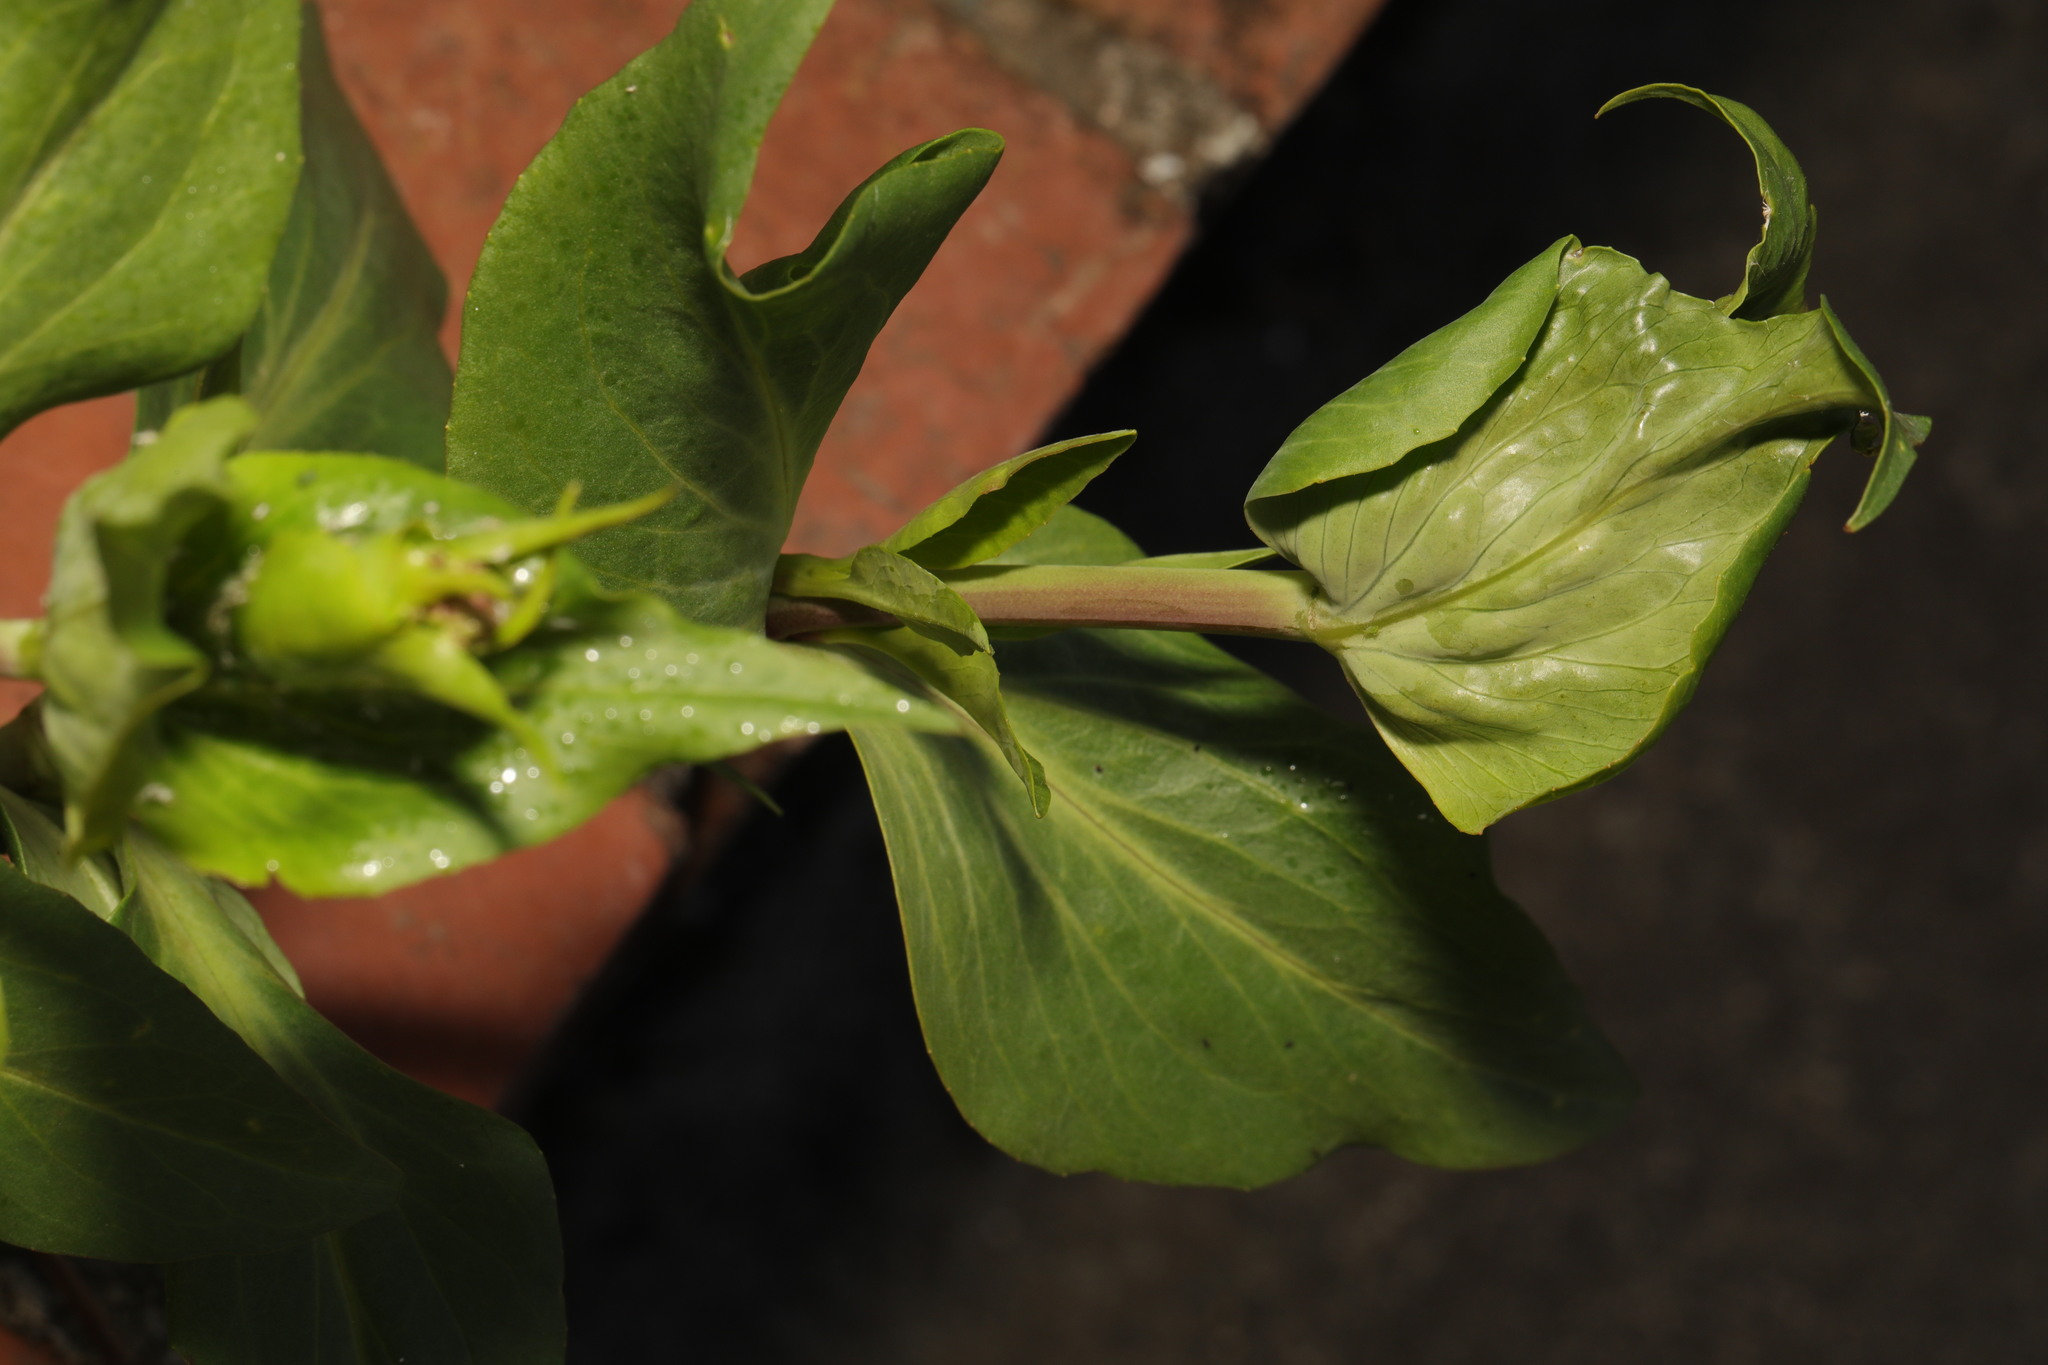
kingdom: Plantae
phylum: Tracheophyta
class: Magnoliopsida
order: Dipsacales
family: Caprifoliaceae
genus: Centranthus
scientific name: Centranthus ruber
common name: Red valerian
